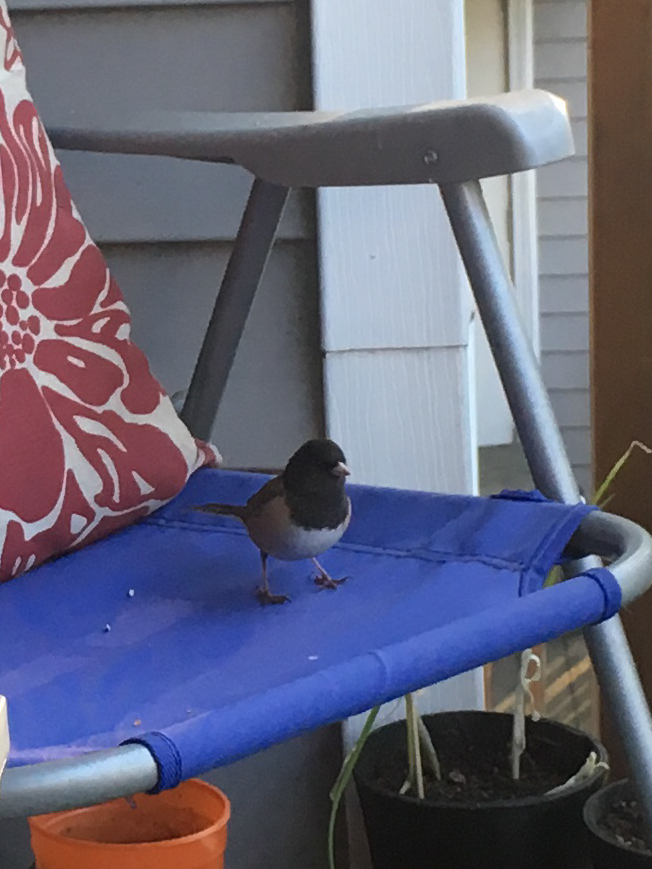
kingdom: Animalia
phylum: Chordata
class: Aves
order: Passeriformes
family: Passerellidae
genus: Junco
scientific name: Junco hyemalis
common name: Dark-eyed junco
